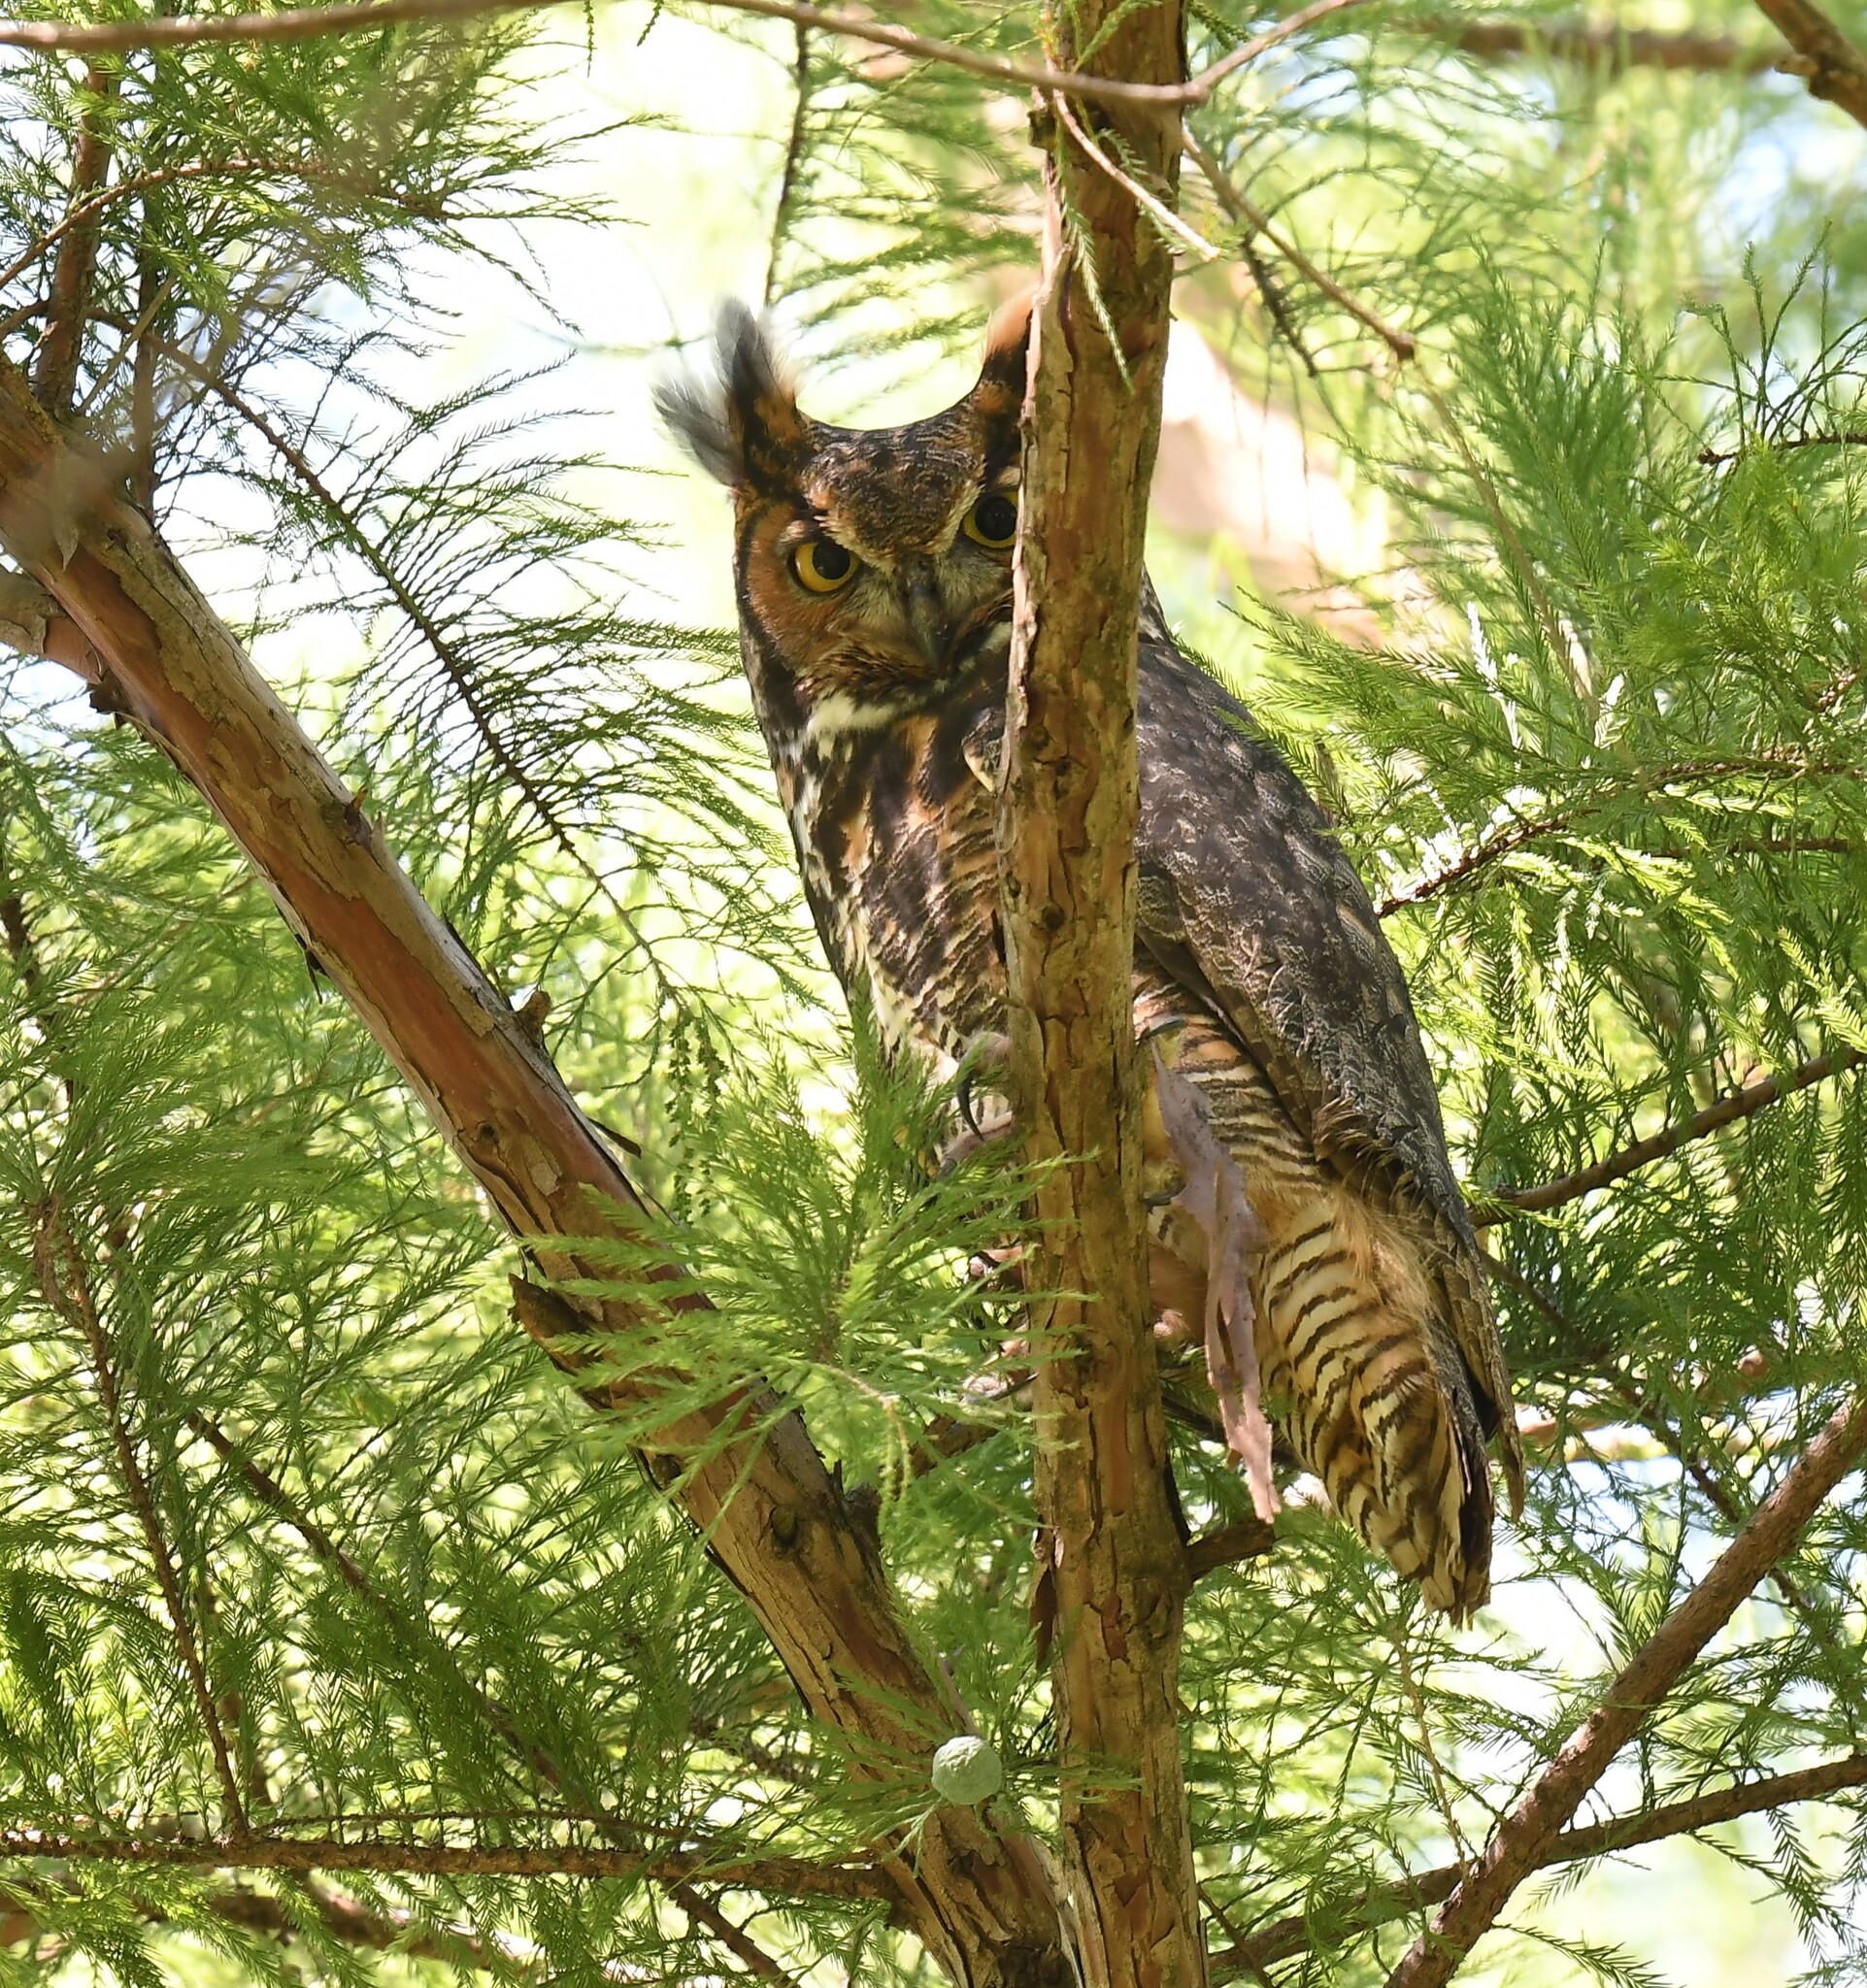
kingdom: Animalia
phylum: Chordata
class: Aves
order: Strigiformes
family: Strigidae
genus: Bubo
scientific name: Bubo virginianus
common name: Great horned owl
